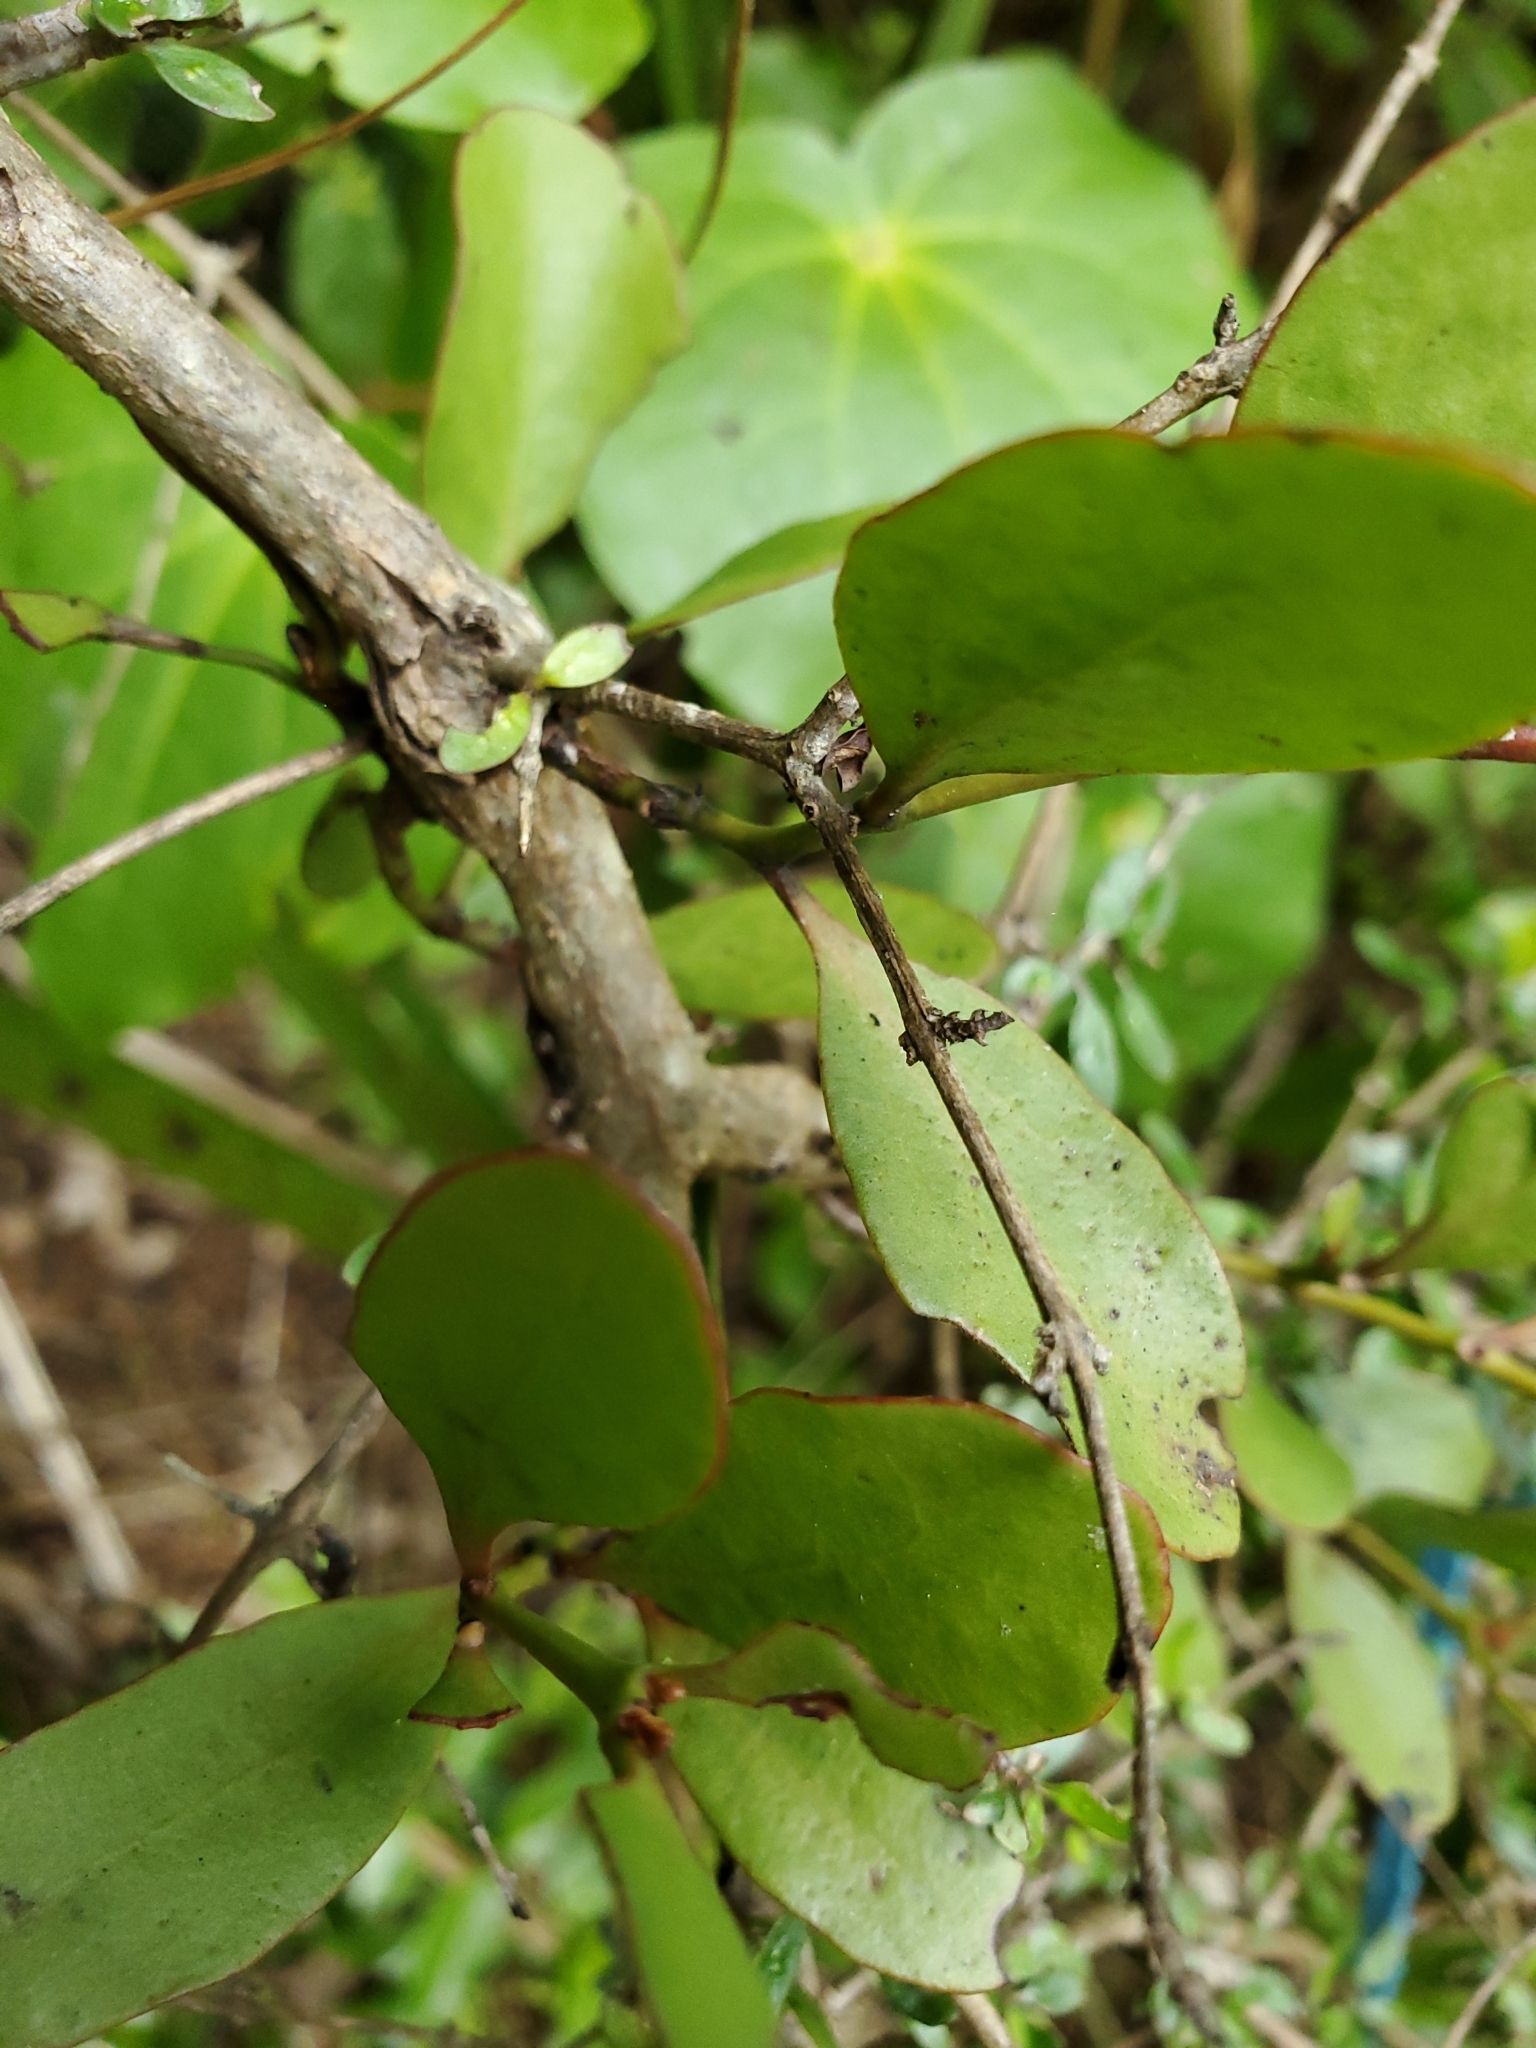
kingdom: Plantae
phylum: Tracheophyta
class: Magnoliopsida
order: Santalales
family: Loranthaceae
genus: Ileostylus
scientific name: Ileostylus micranthus
